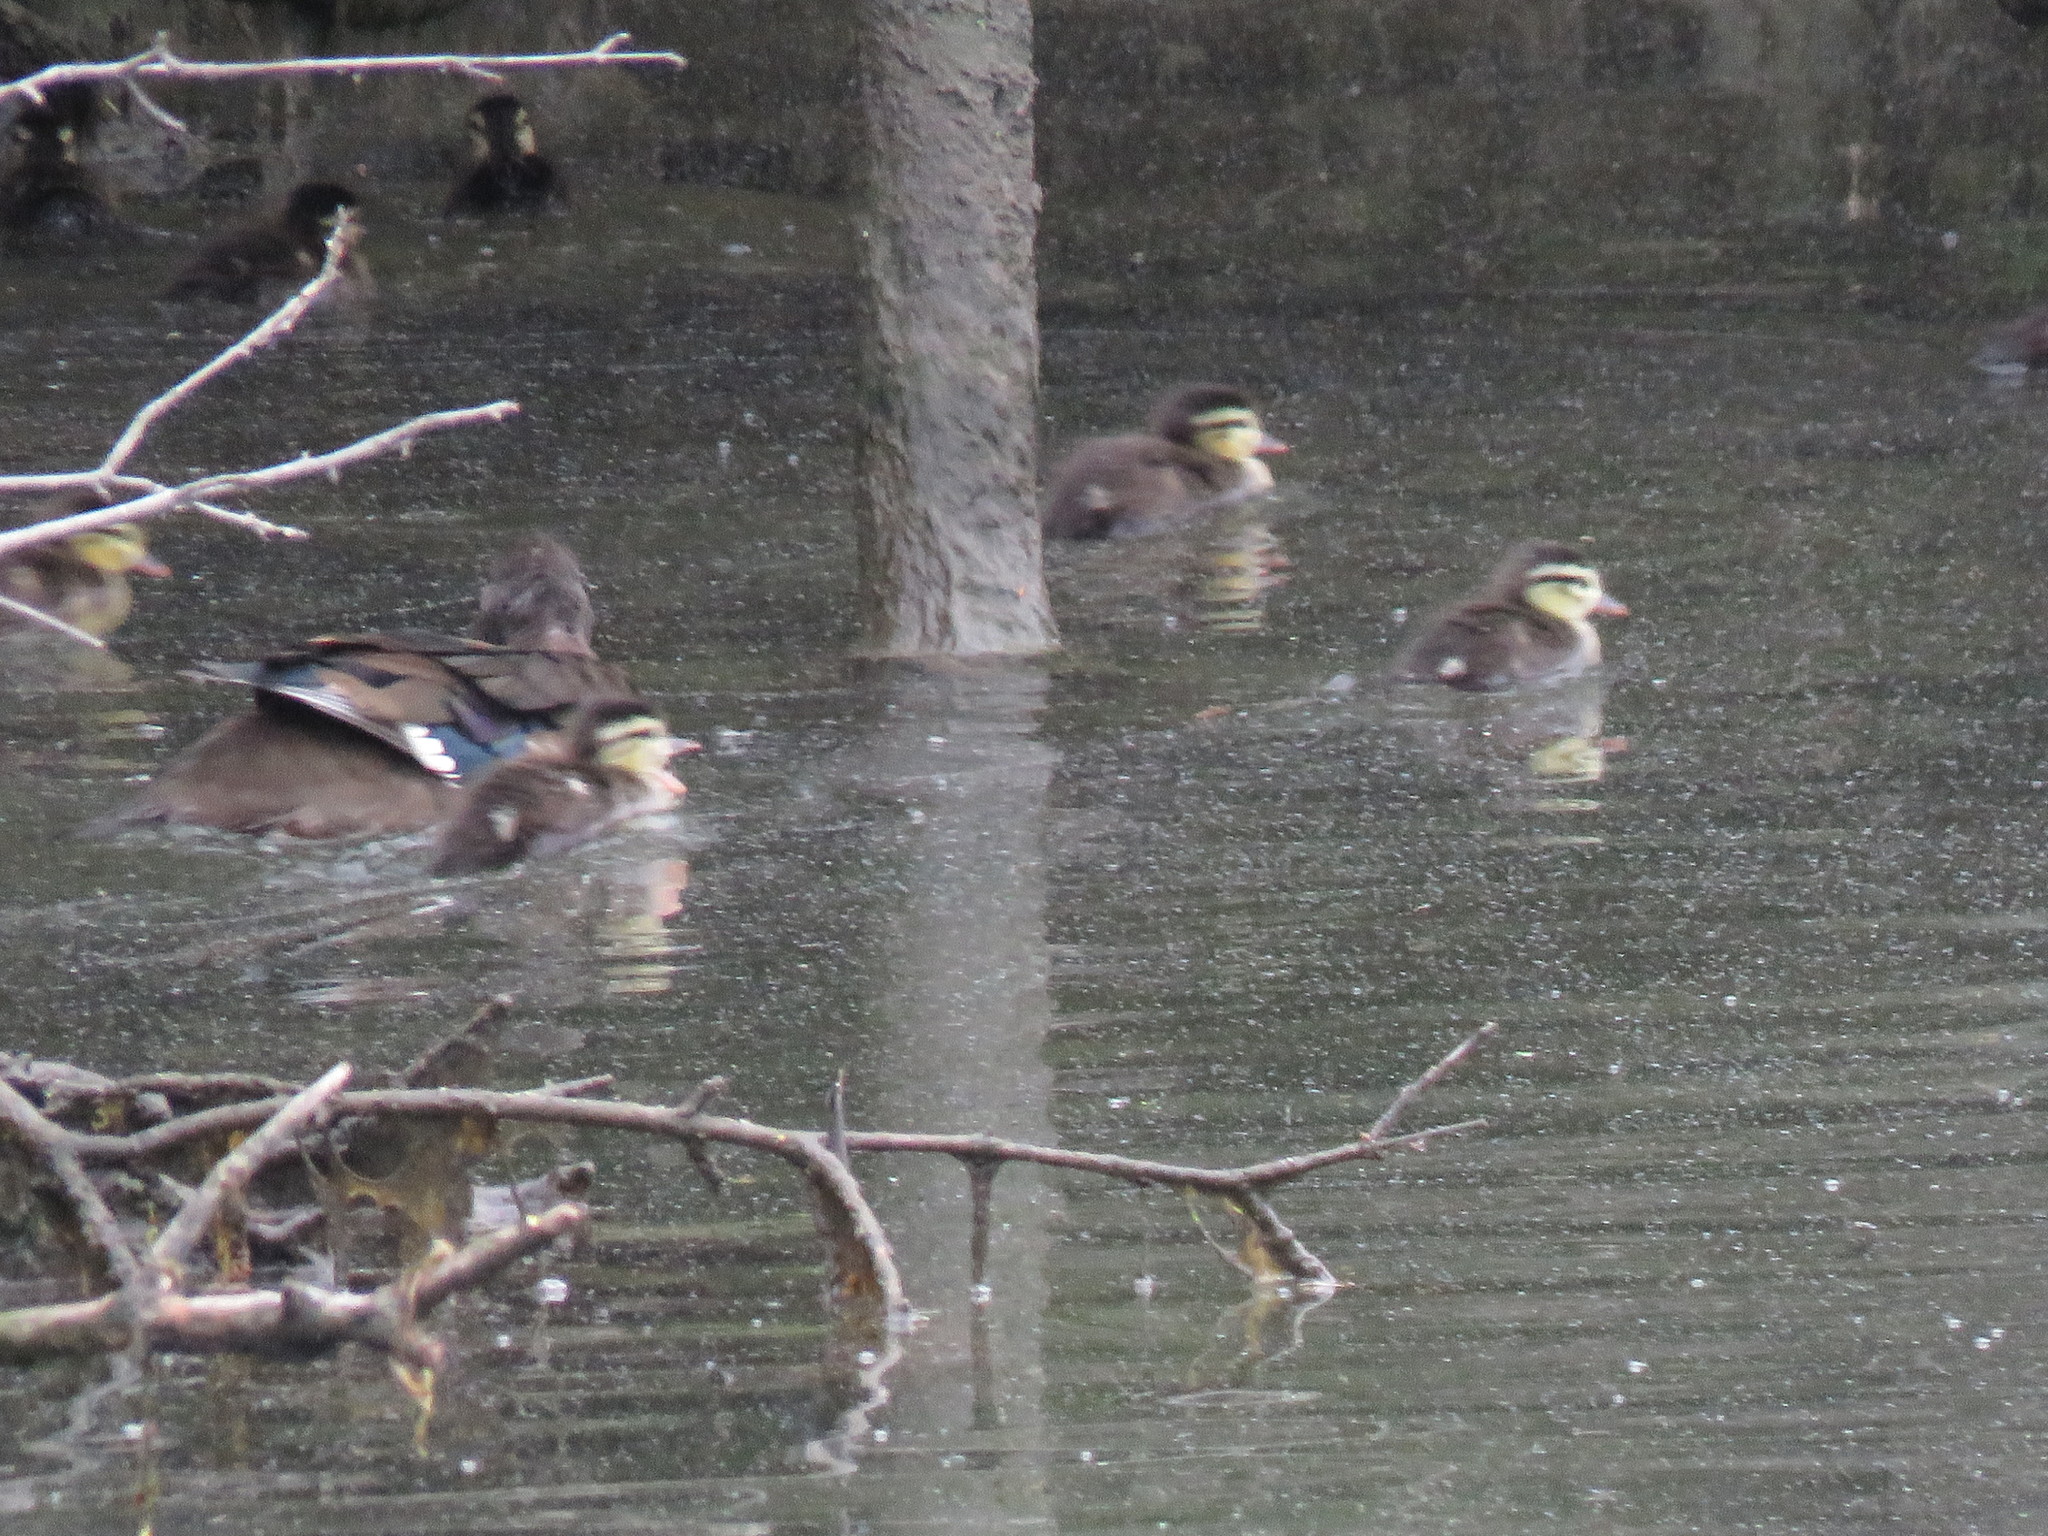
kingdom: Animalia
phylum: Chordata
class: Aves
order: Anseriformes
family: Anatidae
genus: Aix
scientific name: Aix sponsa
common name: Wood duck
